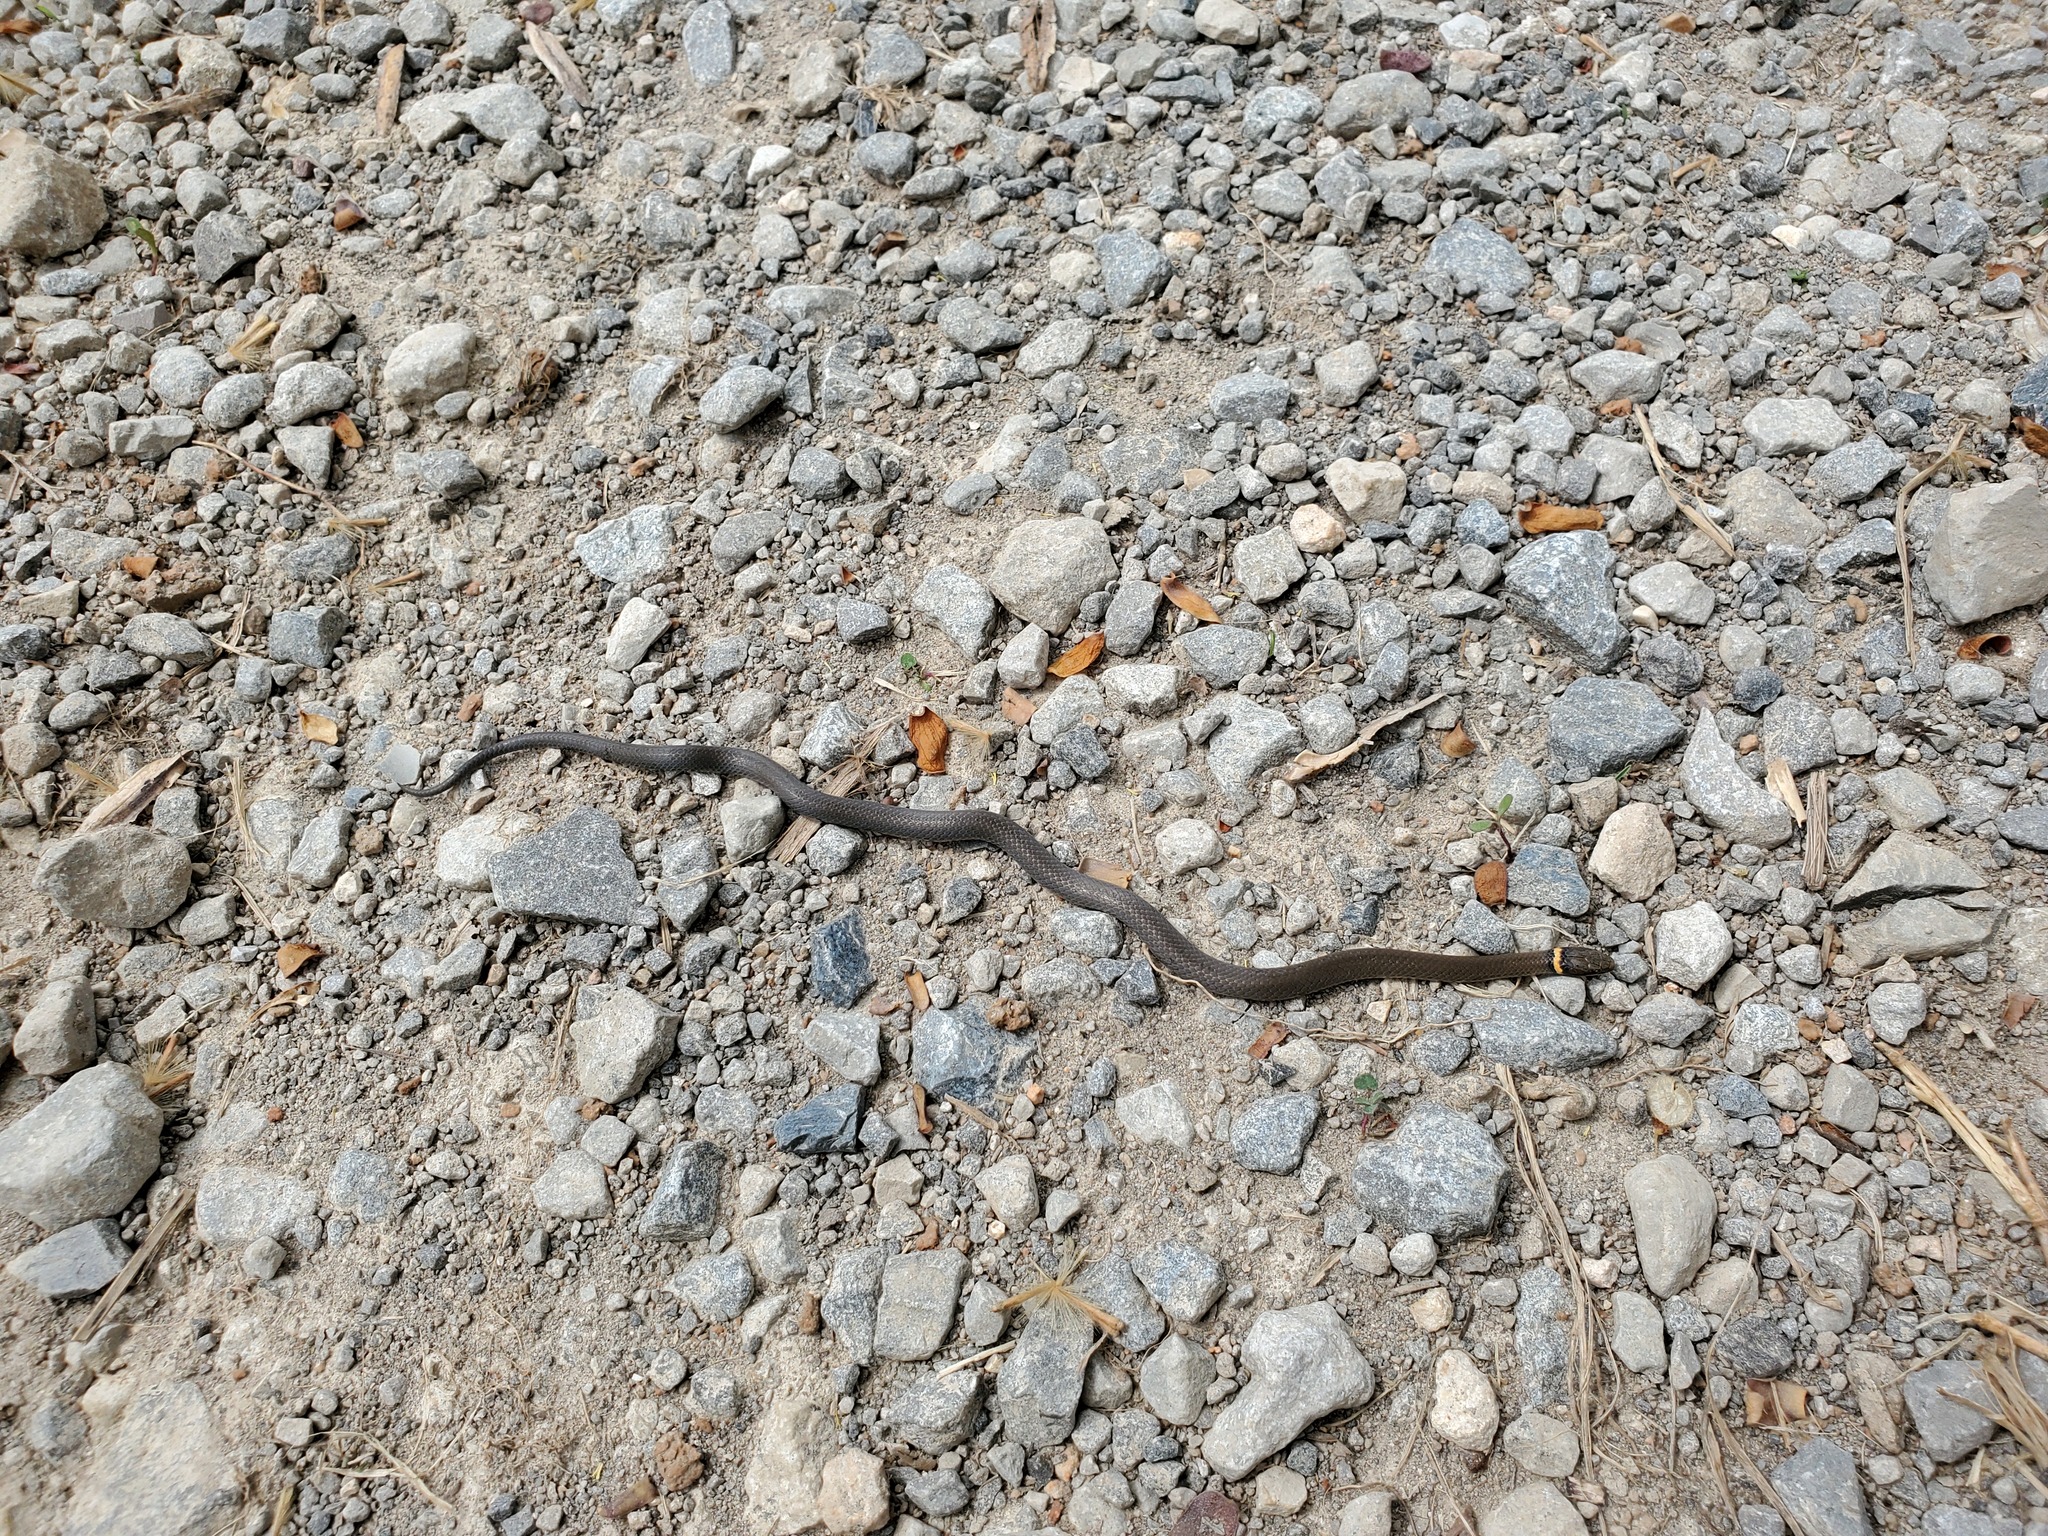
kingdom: Animalia
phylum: Chordata
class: Squamata
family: Colubridae
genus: Diadophis
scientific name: Diadophis punctatus
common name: Ringneck snake
